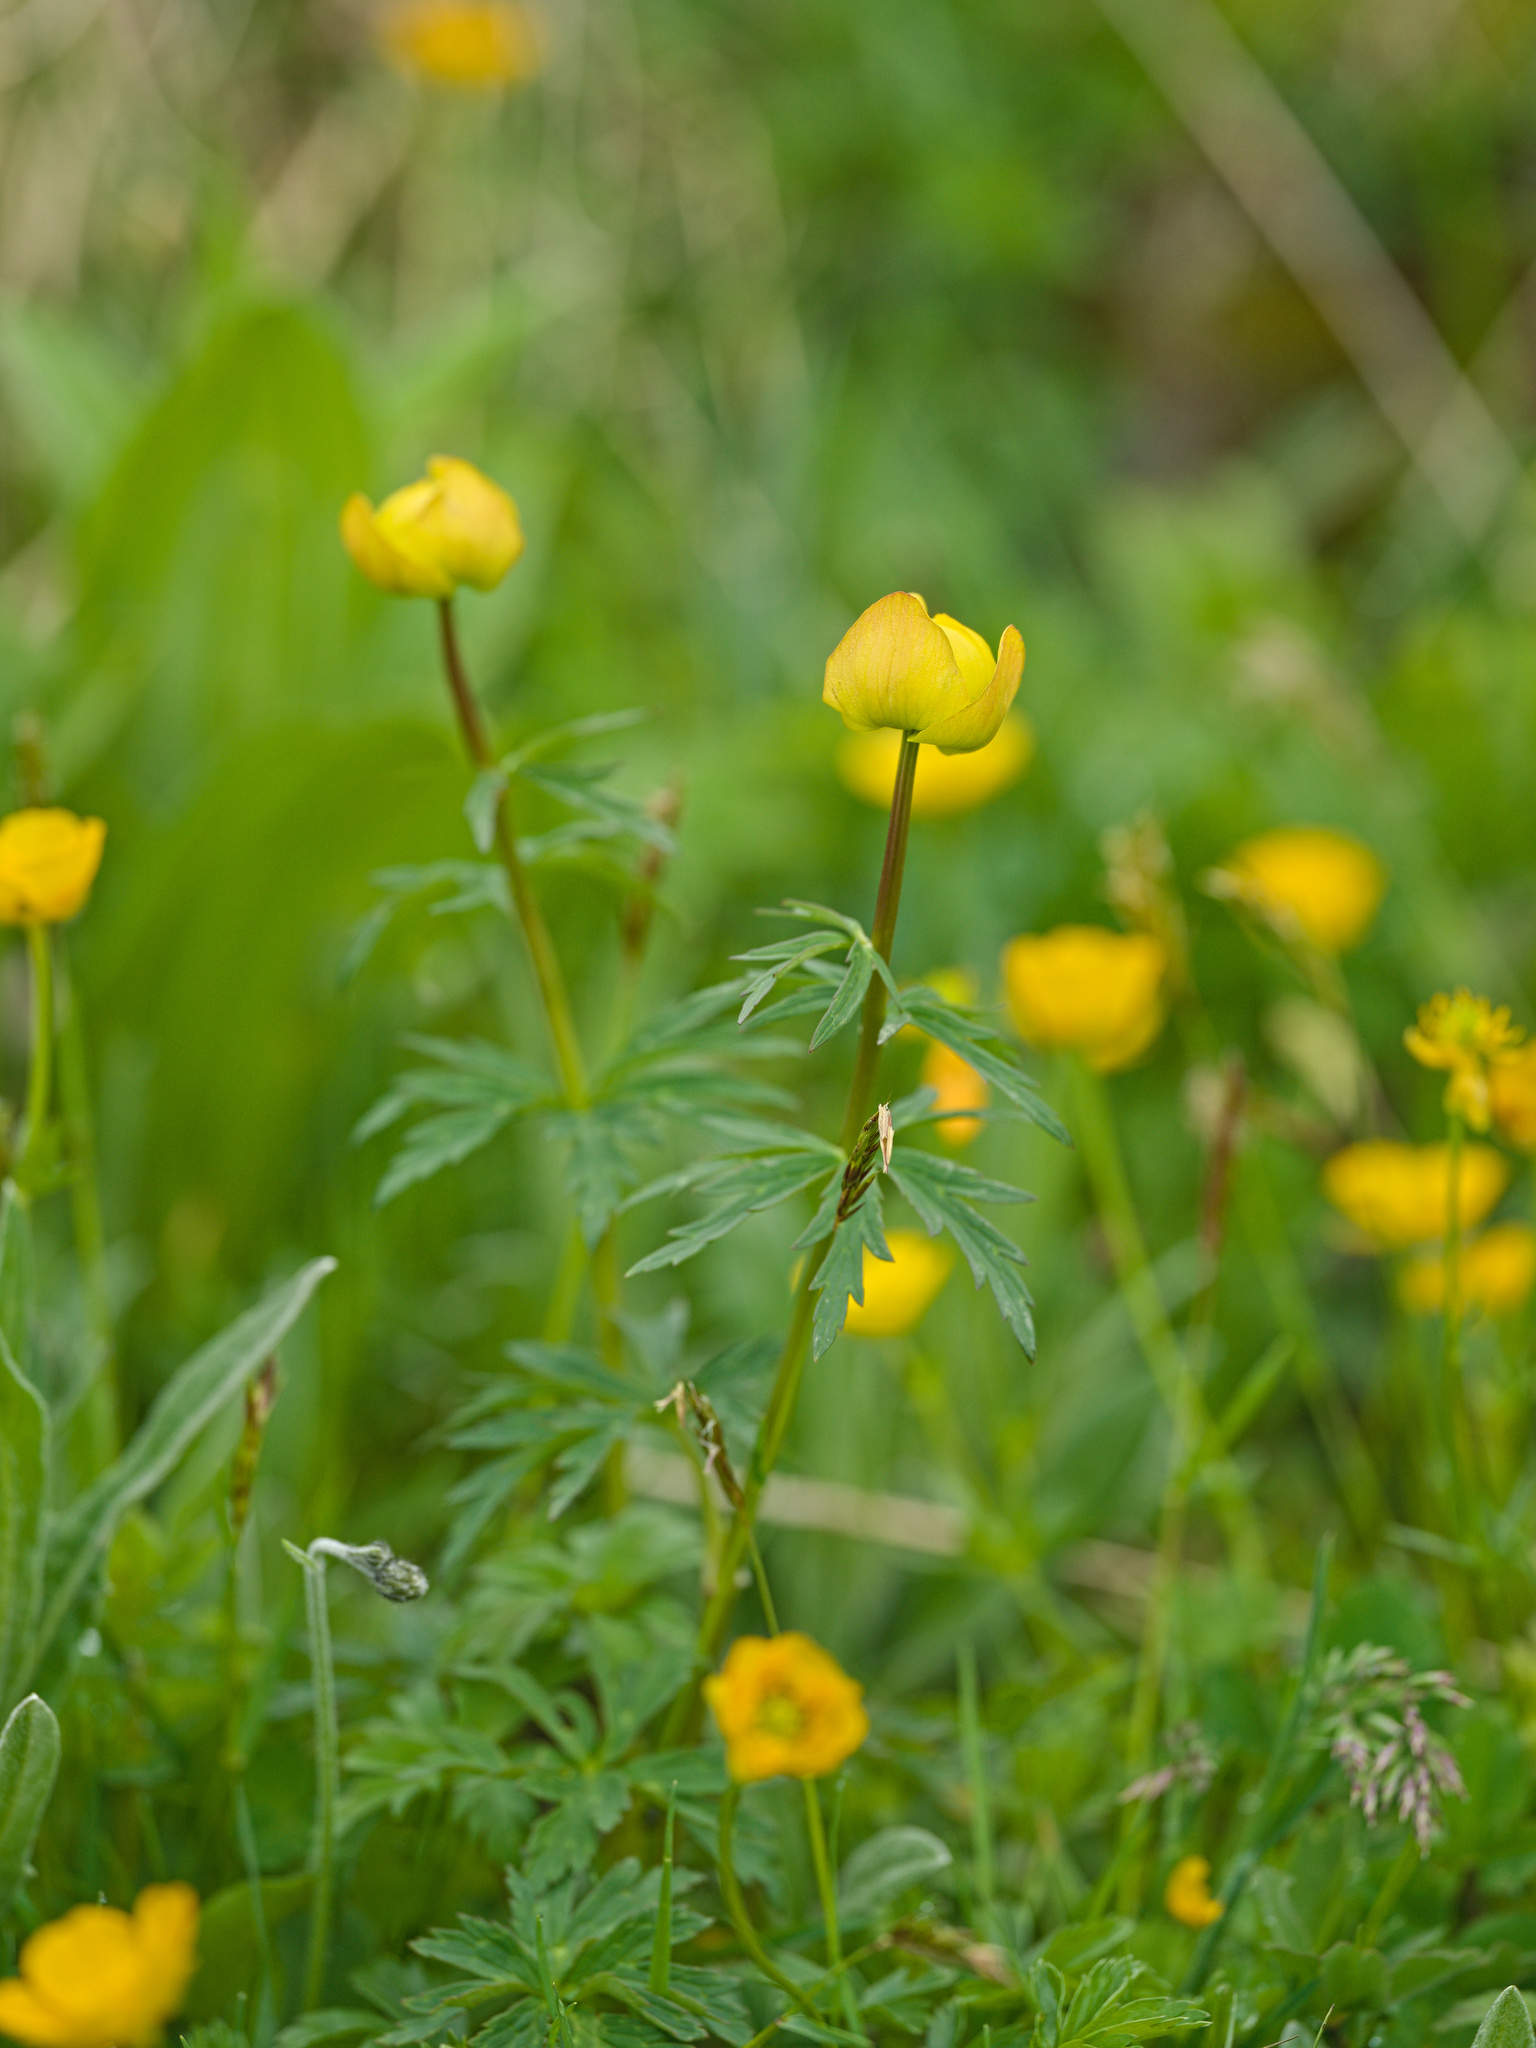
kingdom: Plantae
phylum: Tracheophyta
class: Magnoliopsida
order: Ranunculales
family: Ranunculaceae
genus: Trollius
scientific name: Trollius europaeus
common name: European globeflower
